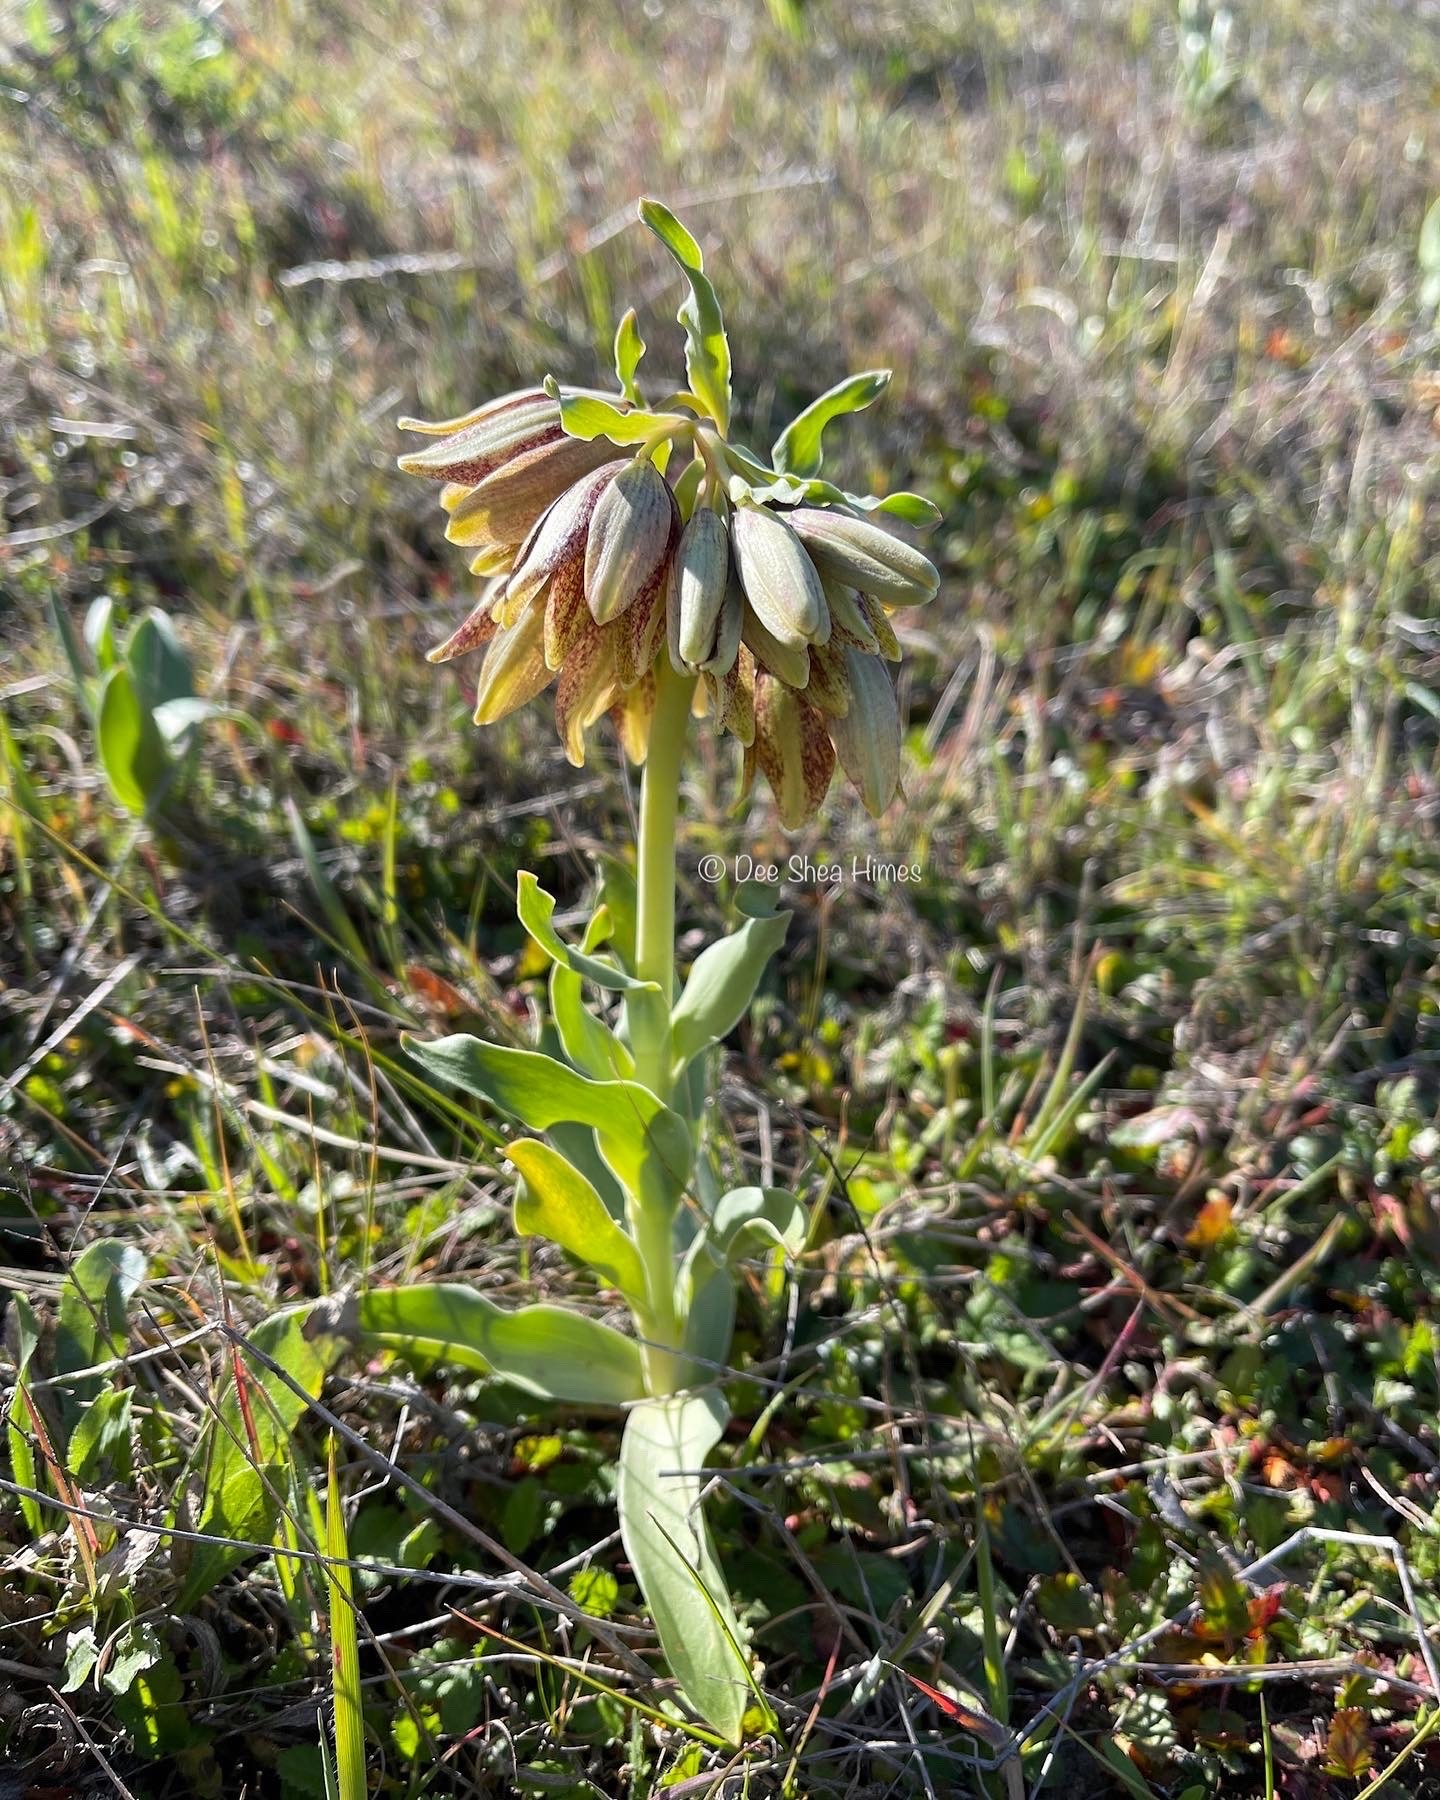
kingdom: Plantae
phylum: Tracheophyta
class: Liliopsida
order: Liliales
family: Liliaceae
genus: Fritillaria
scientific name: Fritillaria agrestis
